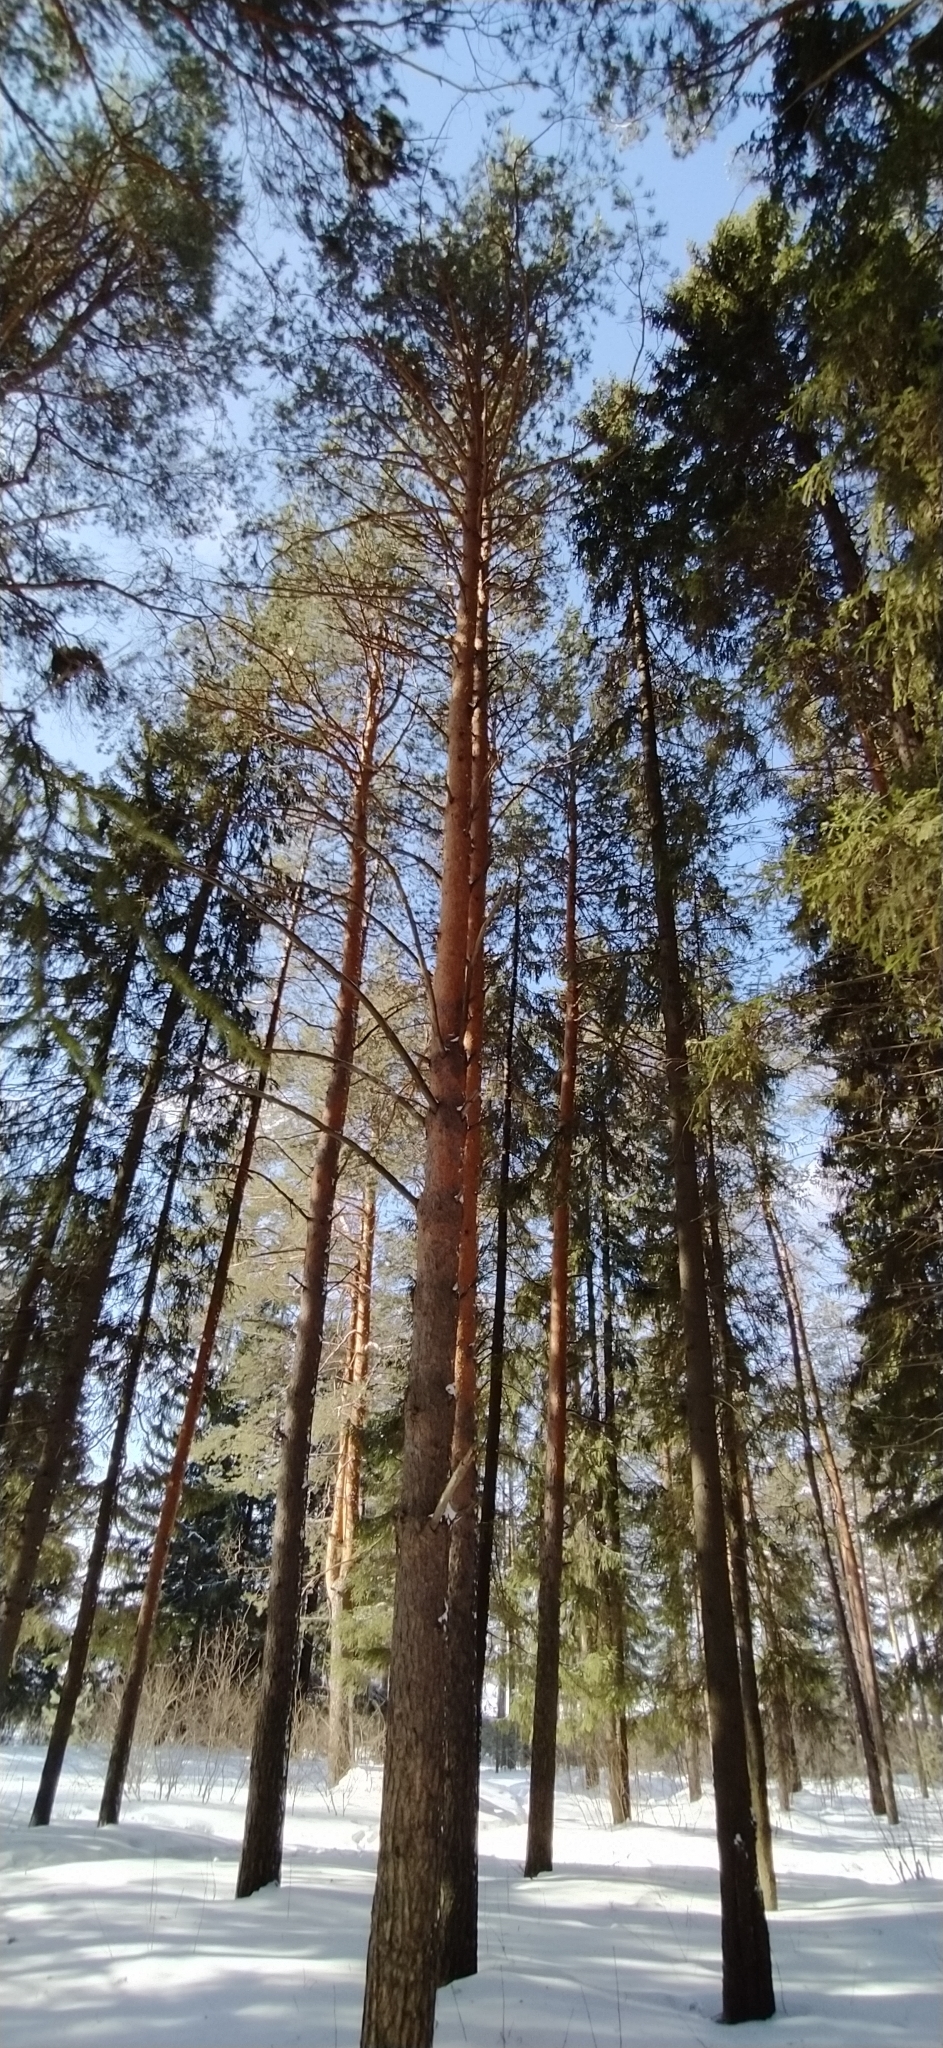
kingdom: Plantae
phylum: Tracheophyta
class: Pinopsida
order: Pinales
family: Pinaceae
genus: Pinus
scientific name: Pinus sylvestris
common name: Scots pine
